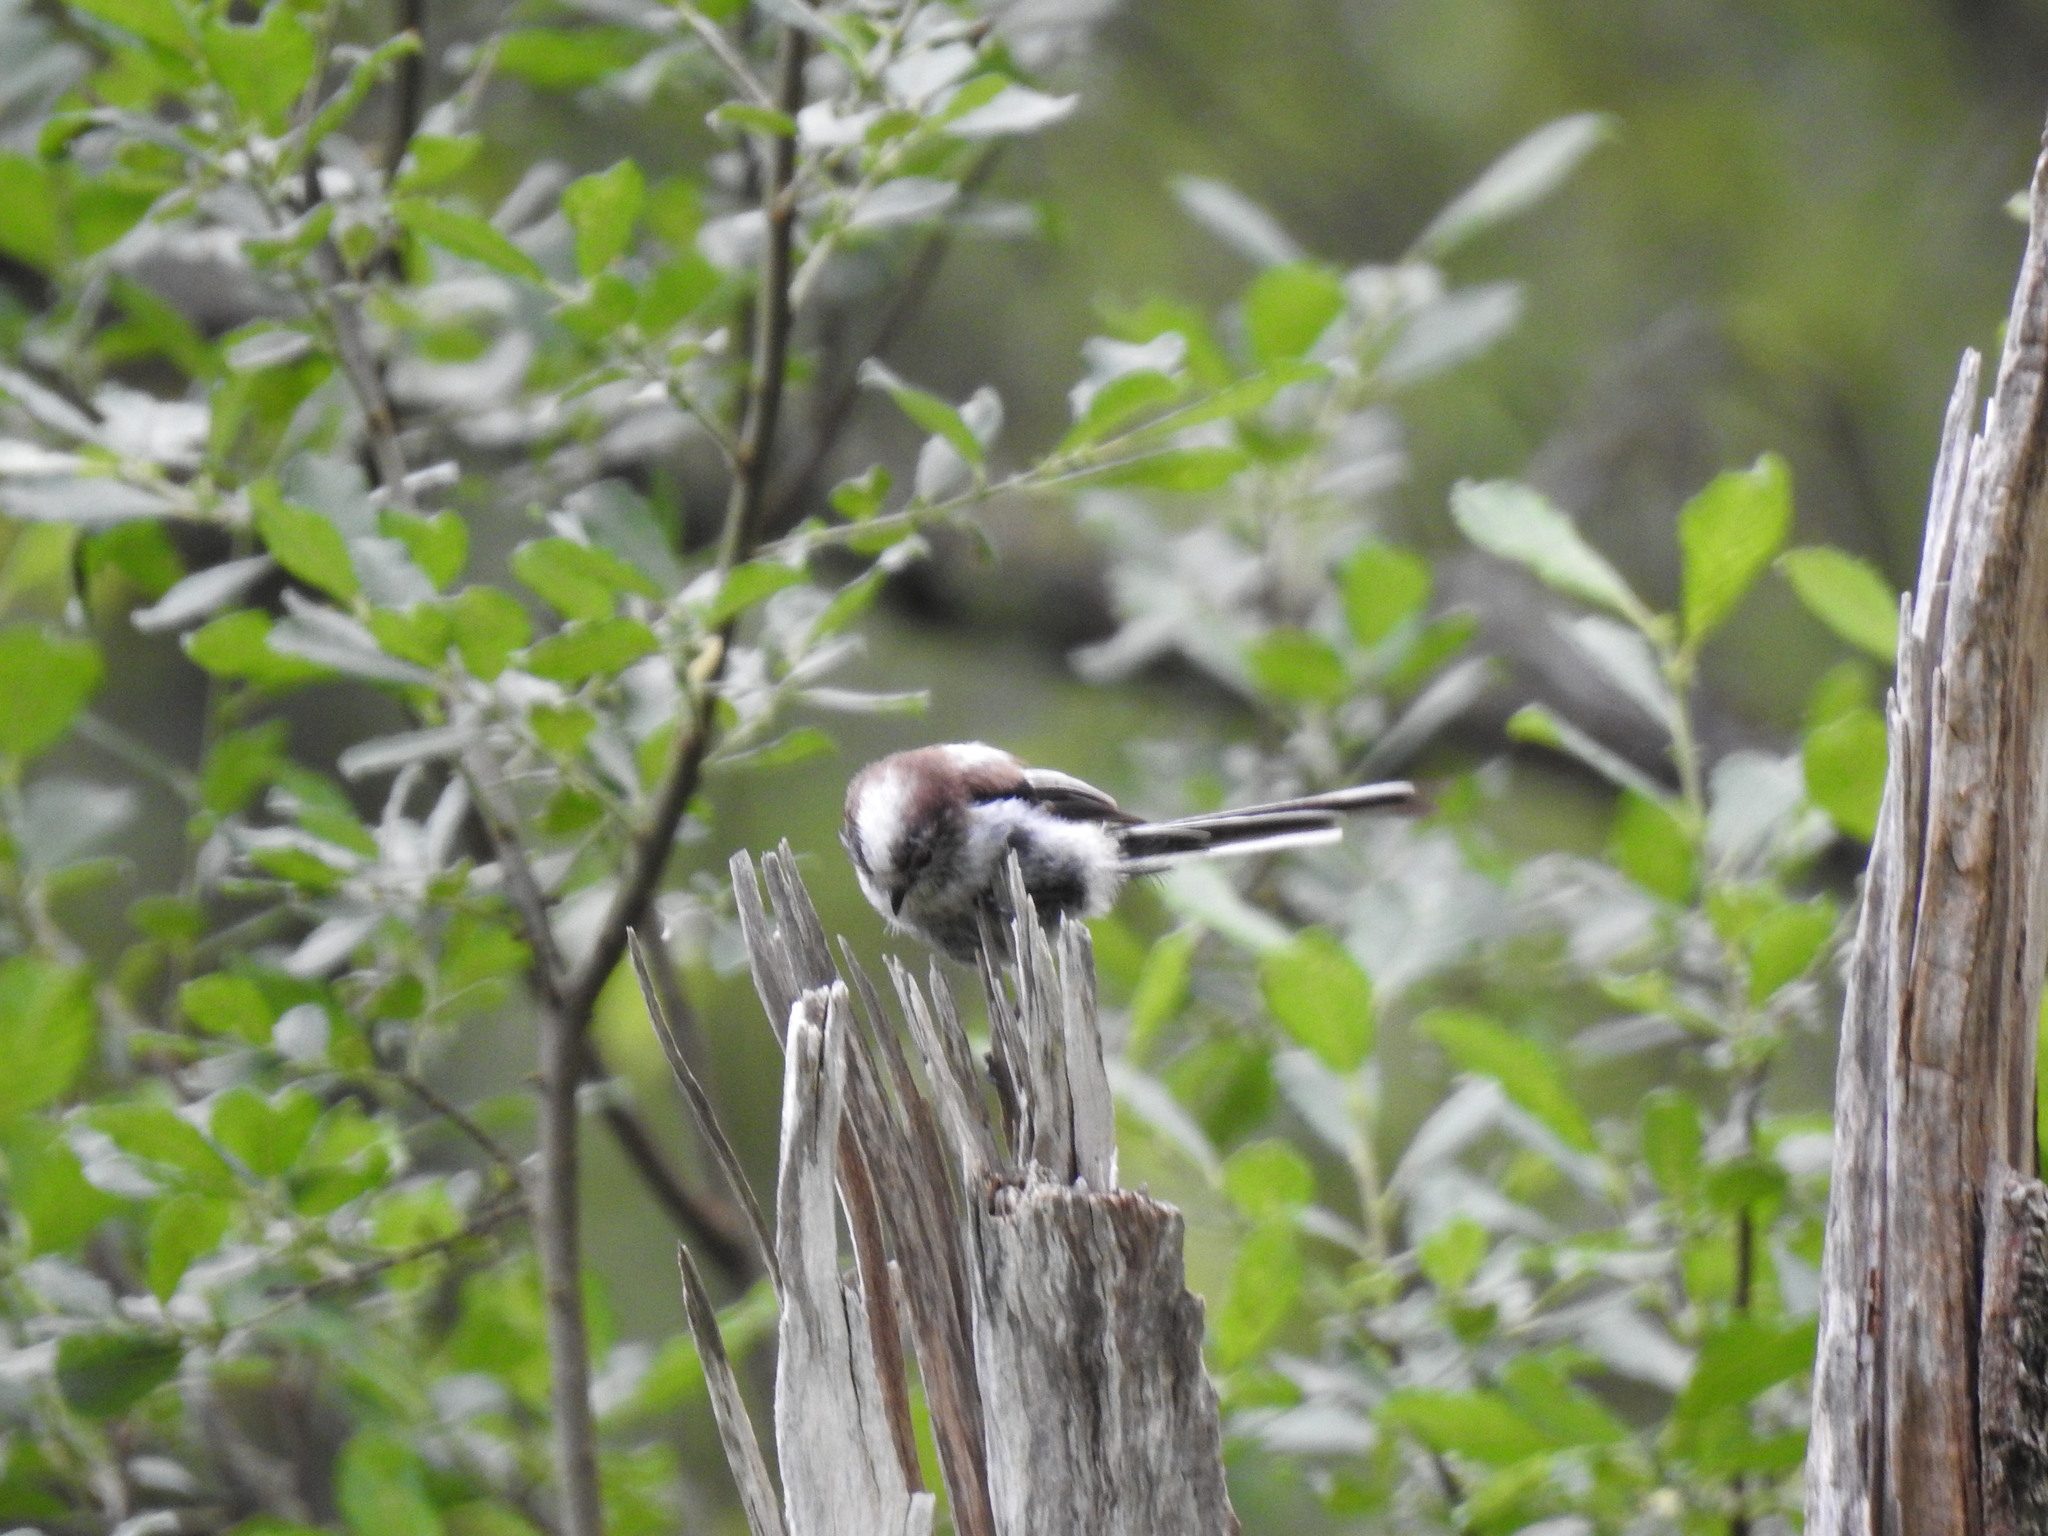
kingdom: Animalia
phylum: Chordata
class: Aves
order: Passeriformes
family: Aegithalidae
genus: Aegithalos
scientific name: Aegithalos caudatus
